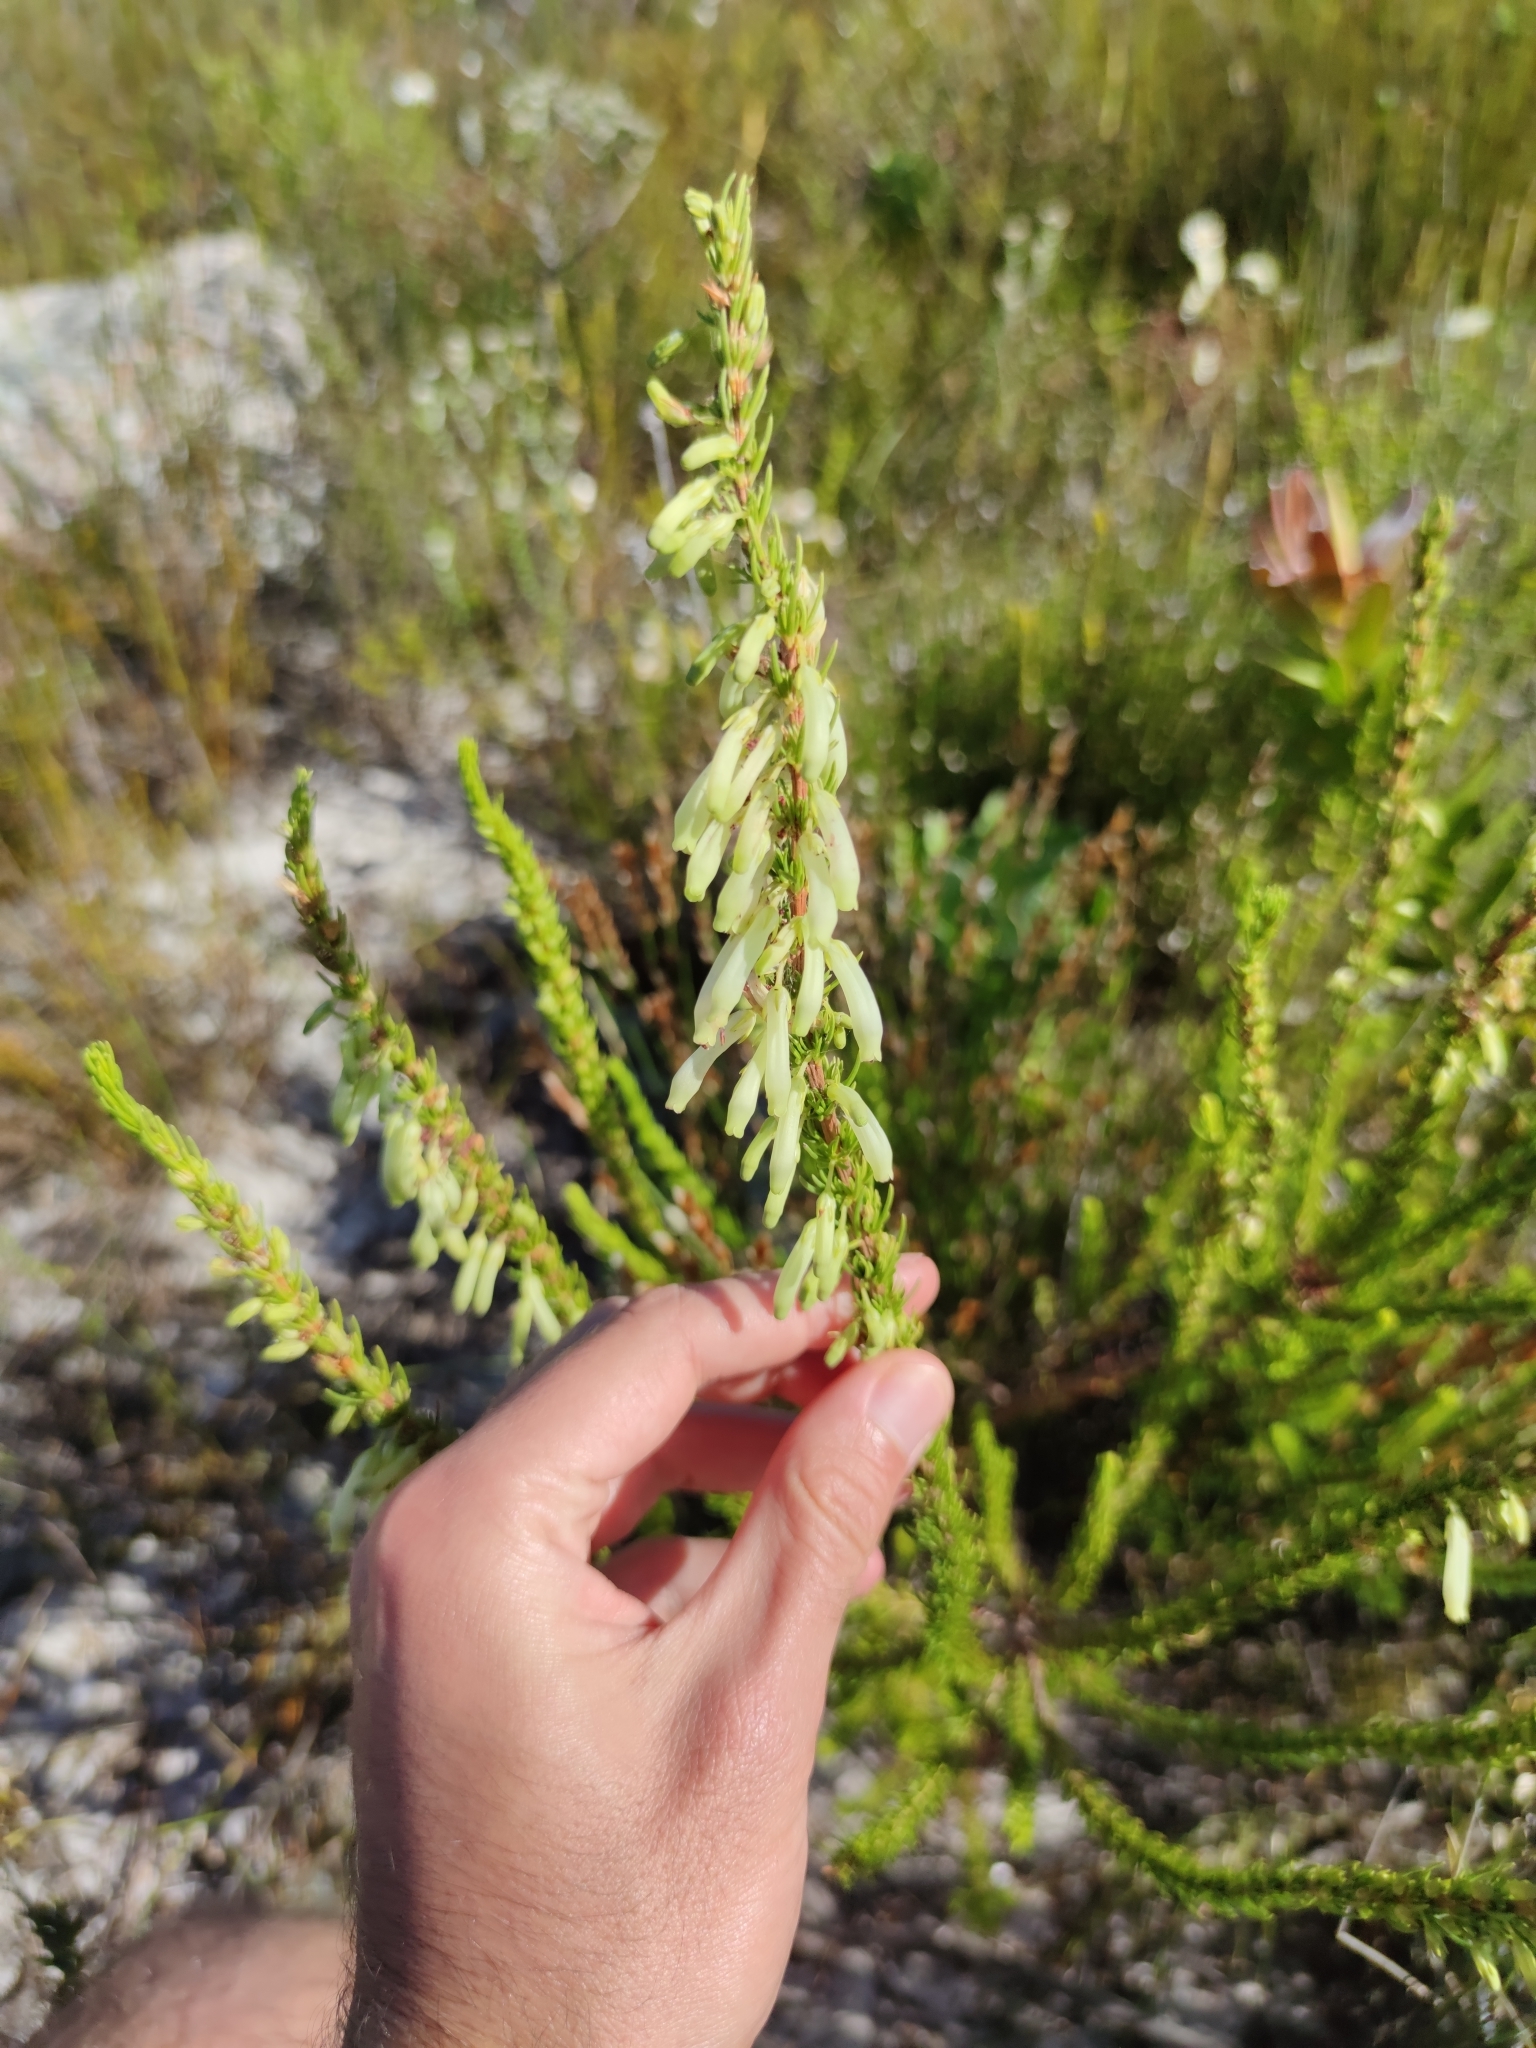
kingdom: Plantae
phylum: Tracheophyta
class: Magnoliopsida
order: Ericales
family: Ericaceae
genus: Erica
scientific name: Erica mammosa
